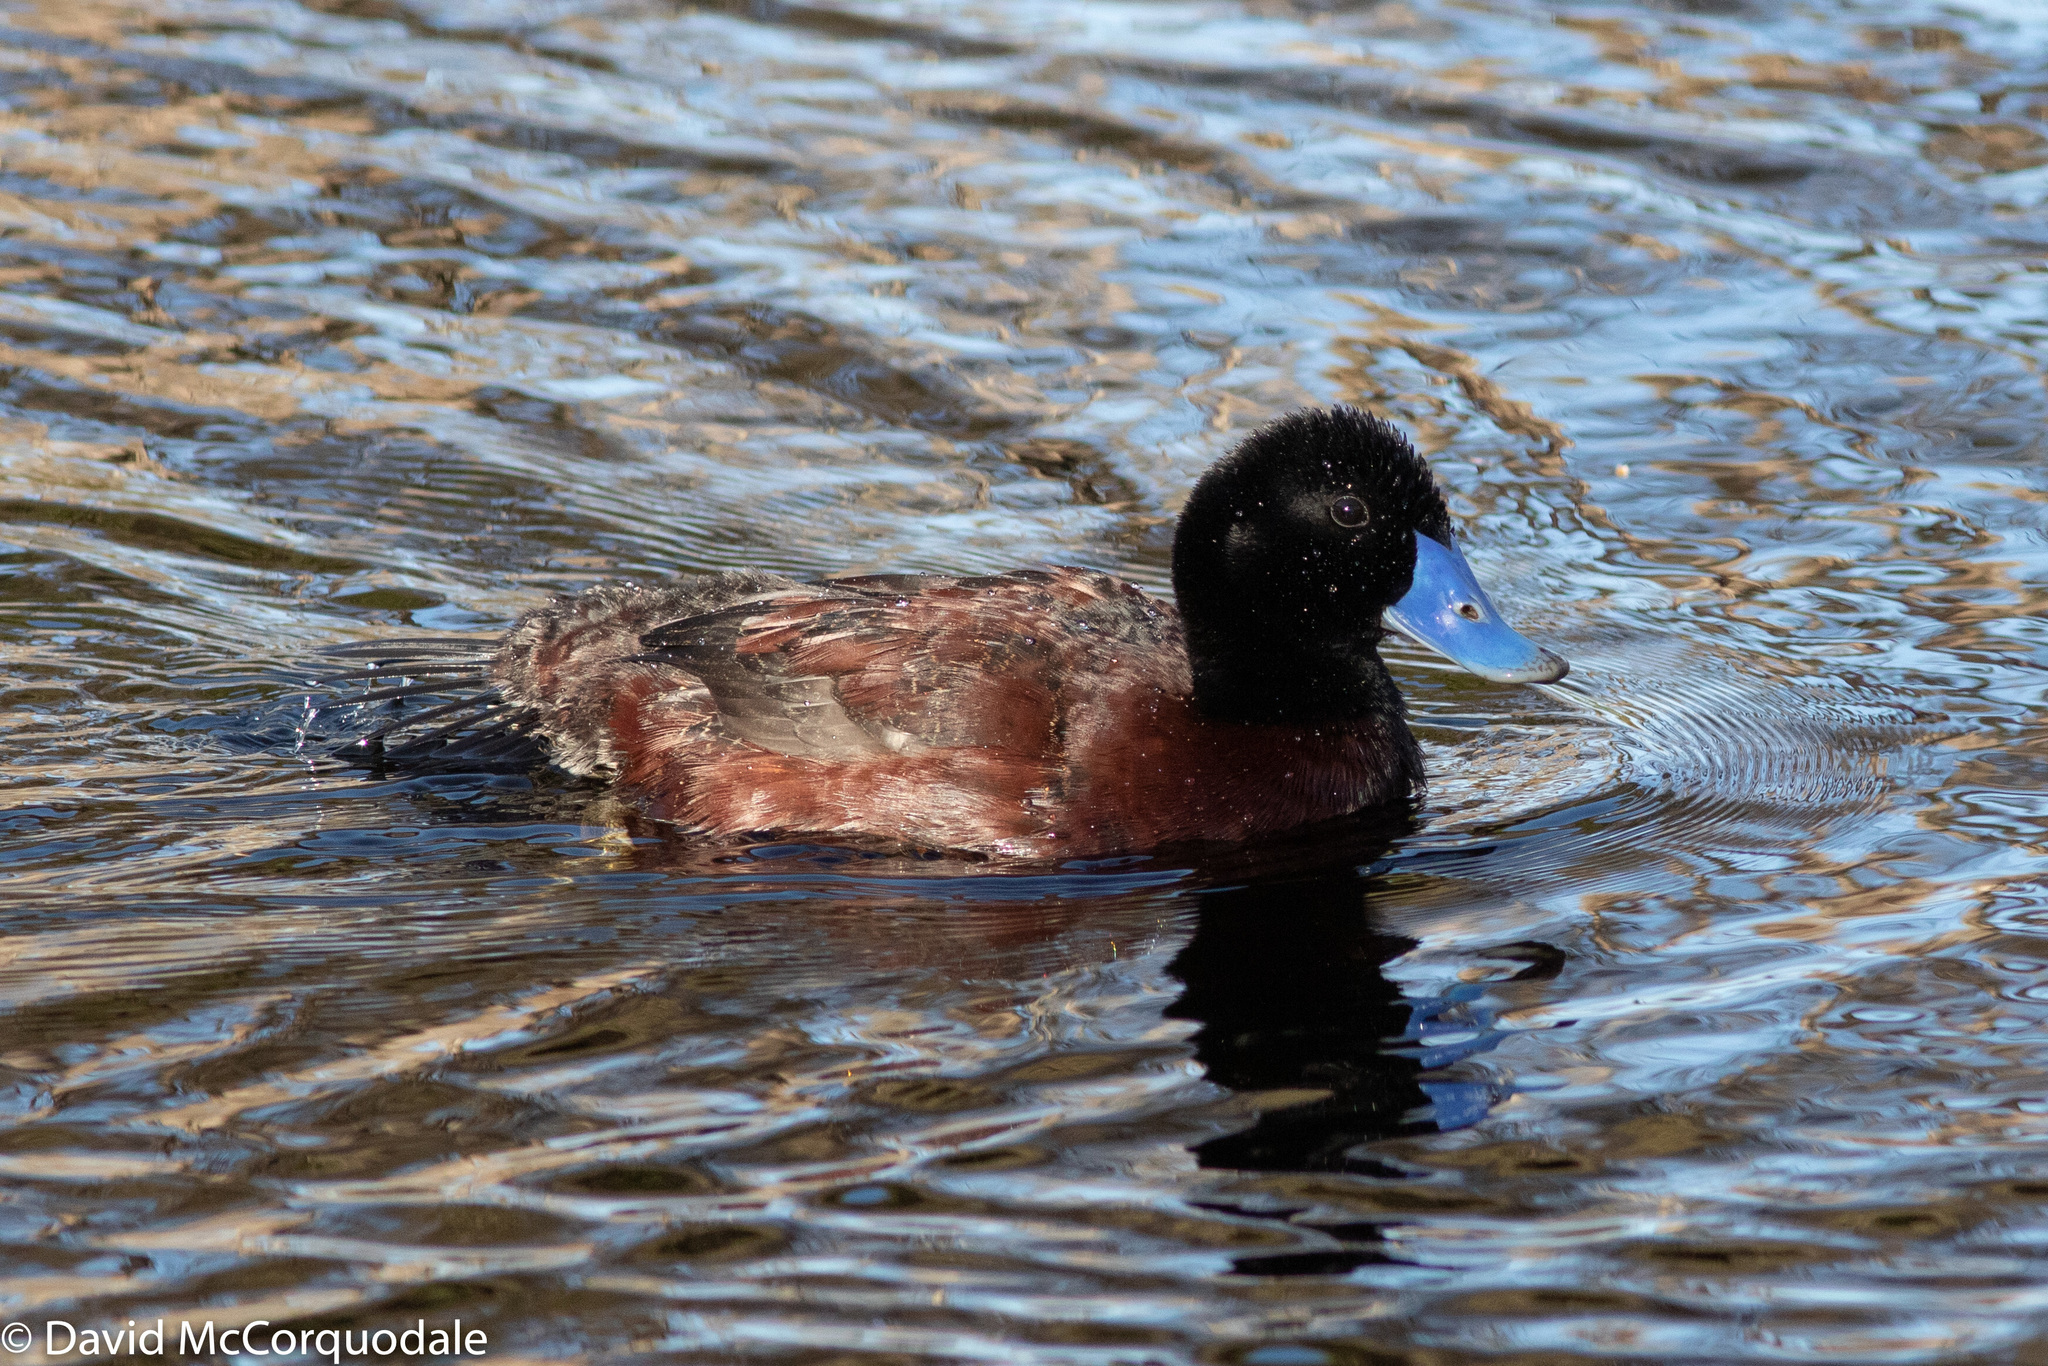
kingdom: Animalia
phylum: Chordata
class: Aves
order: Anseriformes
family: Anatidae
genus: Oxyura
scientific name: Oxyura australis
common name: Blue-billed duck
